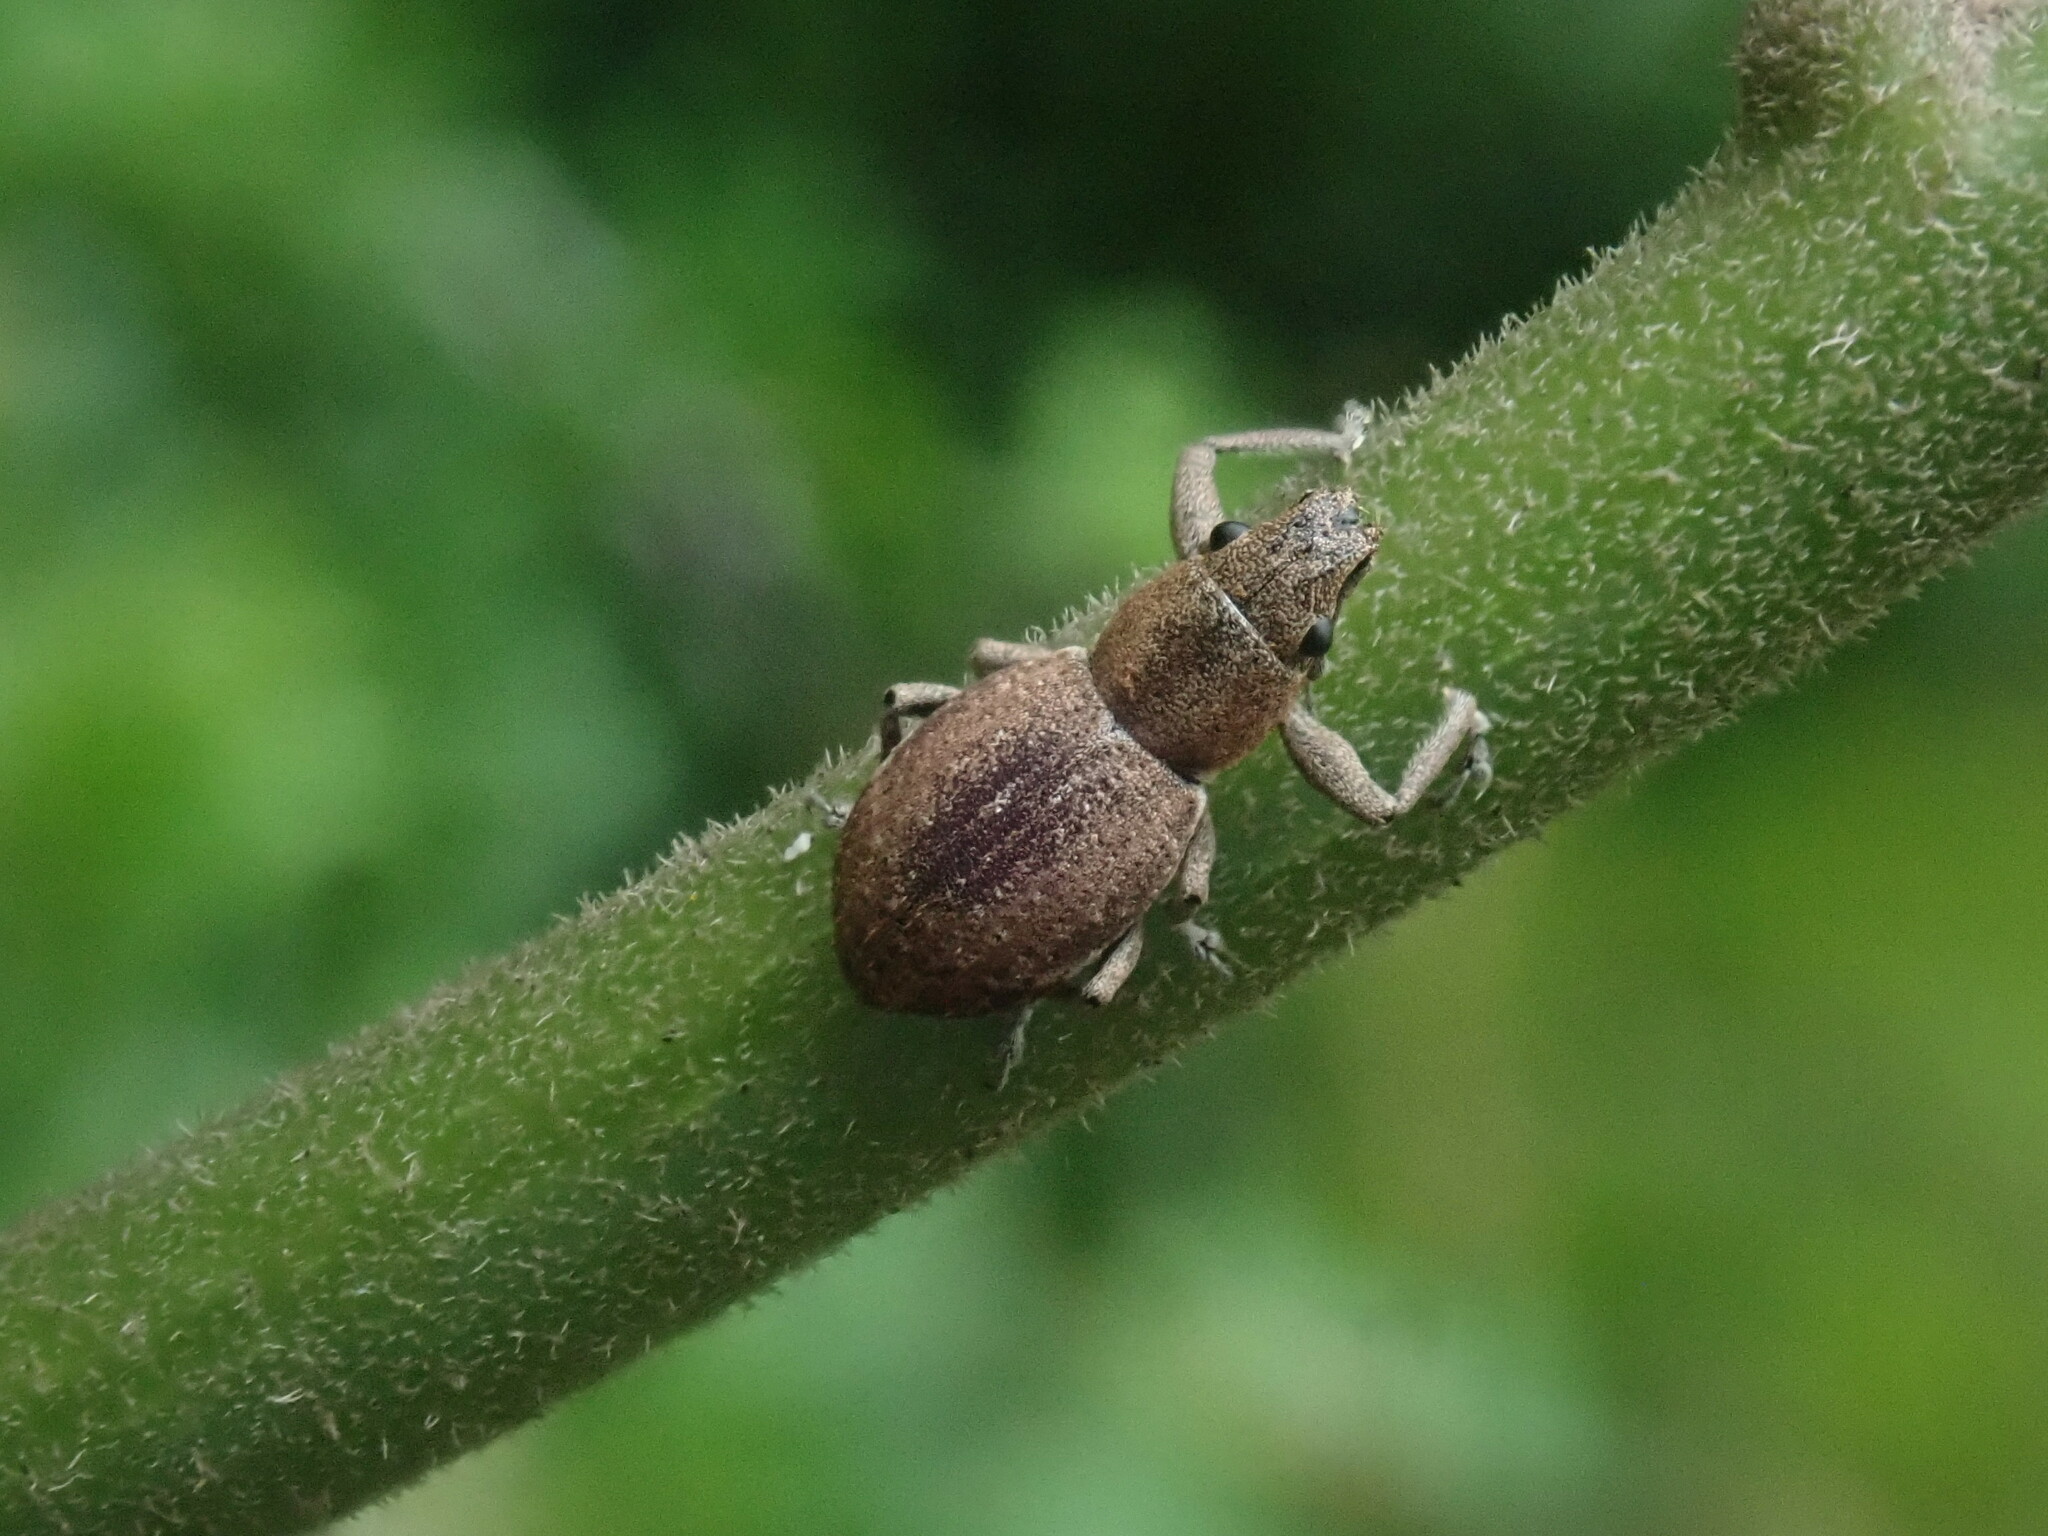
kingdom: Animalia
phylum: Arthropoda
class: Insecta
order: Coleoptera
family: Curculionidae
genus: Naupactus
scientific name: Naupactus cervinus
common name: Fuller rose beetle
